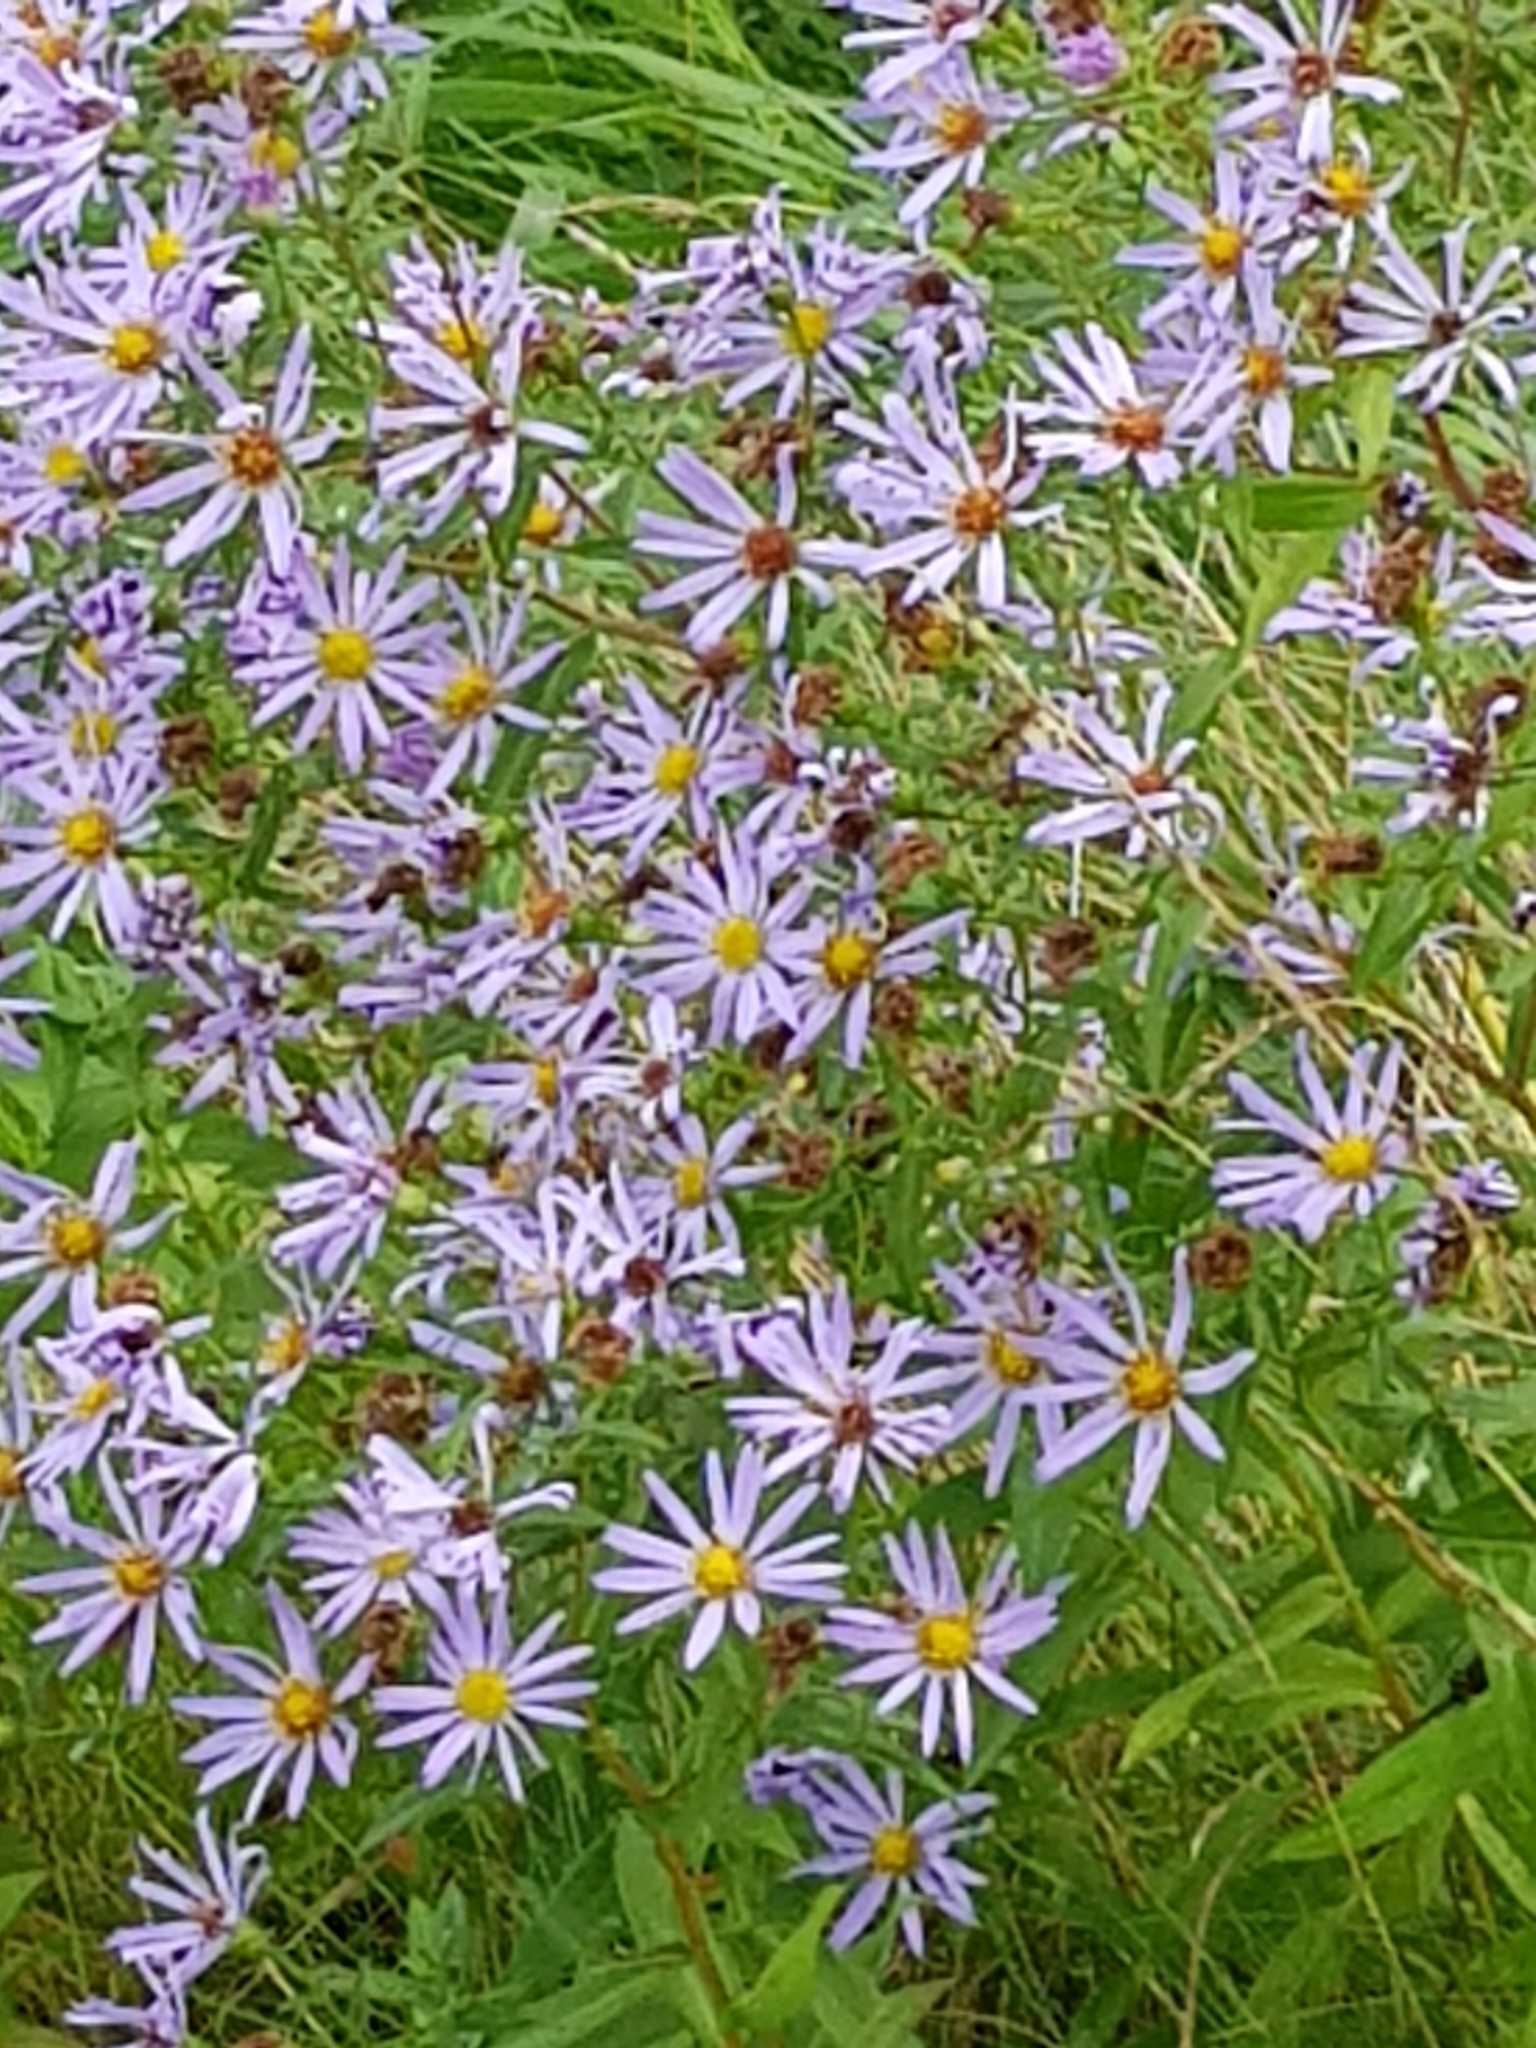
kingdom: Plantae
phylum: Tracheophyta
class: Magnoliopsida
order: Asterales
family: Asteraceae
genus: Symphyotrichum
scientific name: Symphyotrichum novi-belgii
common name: Michaelmas daisy
